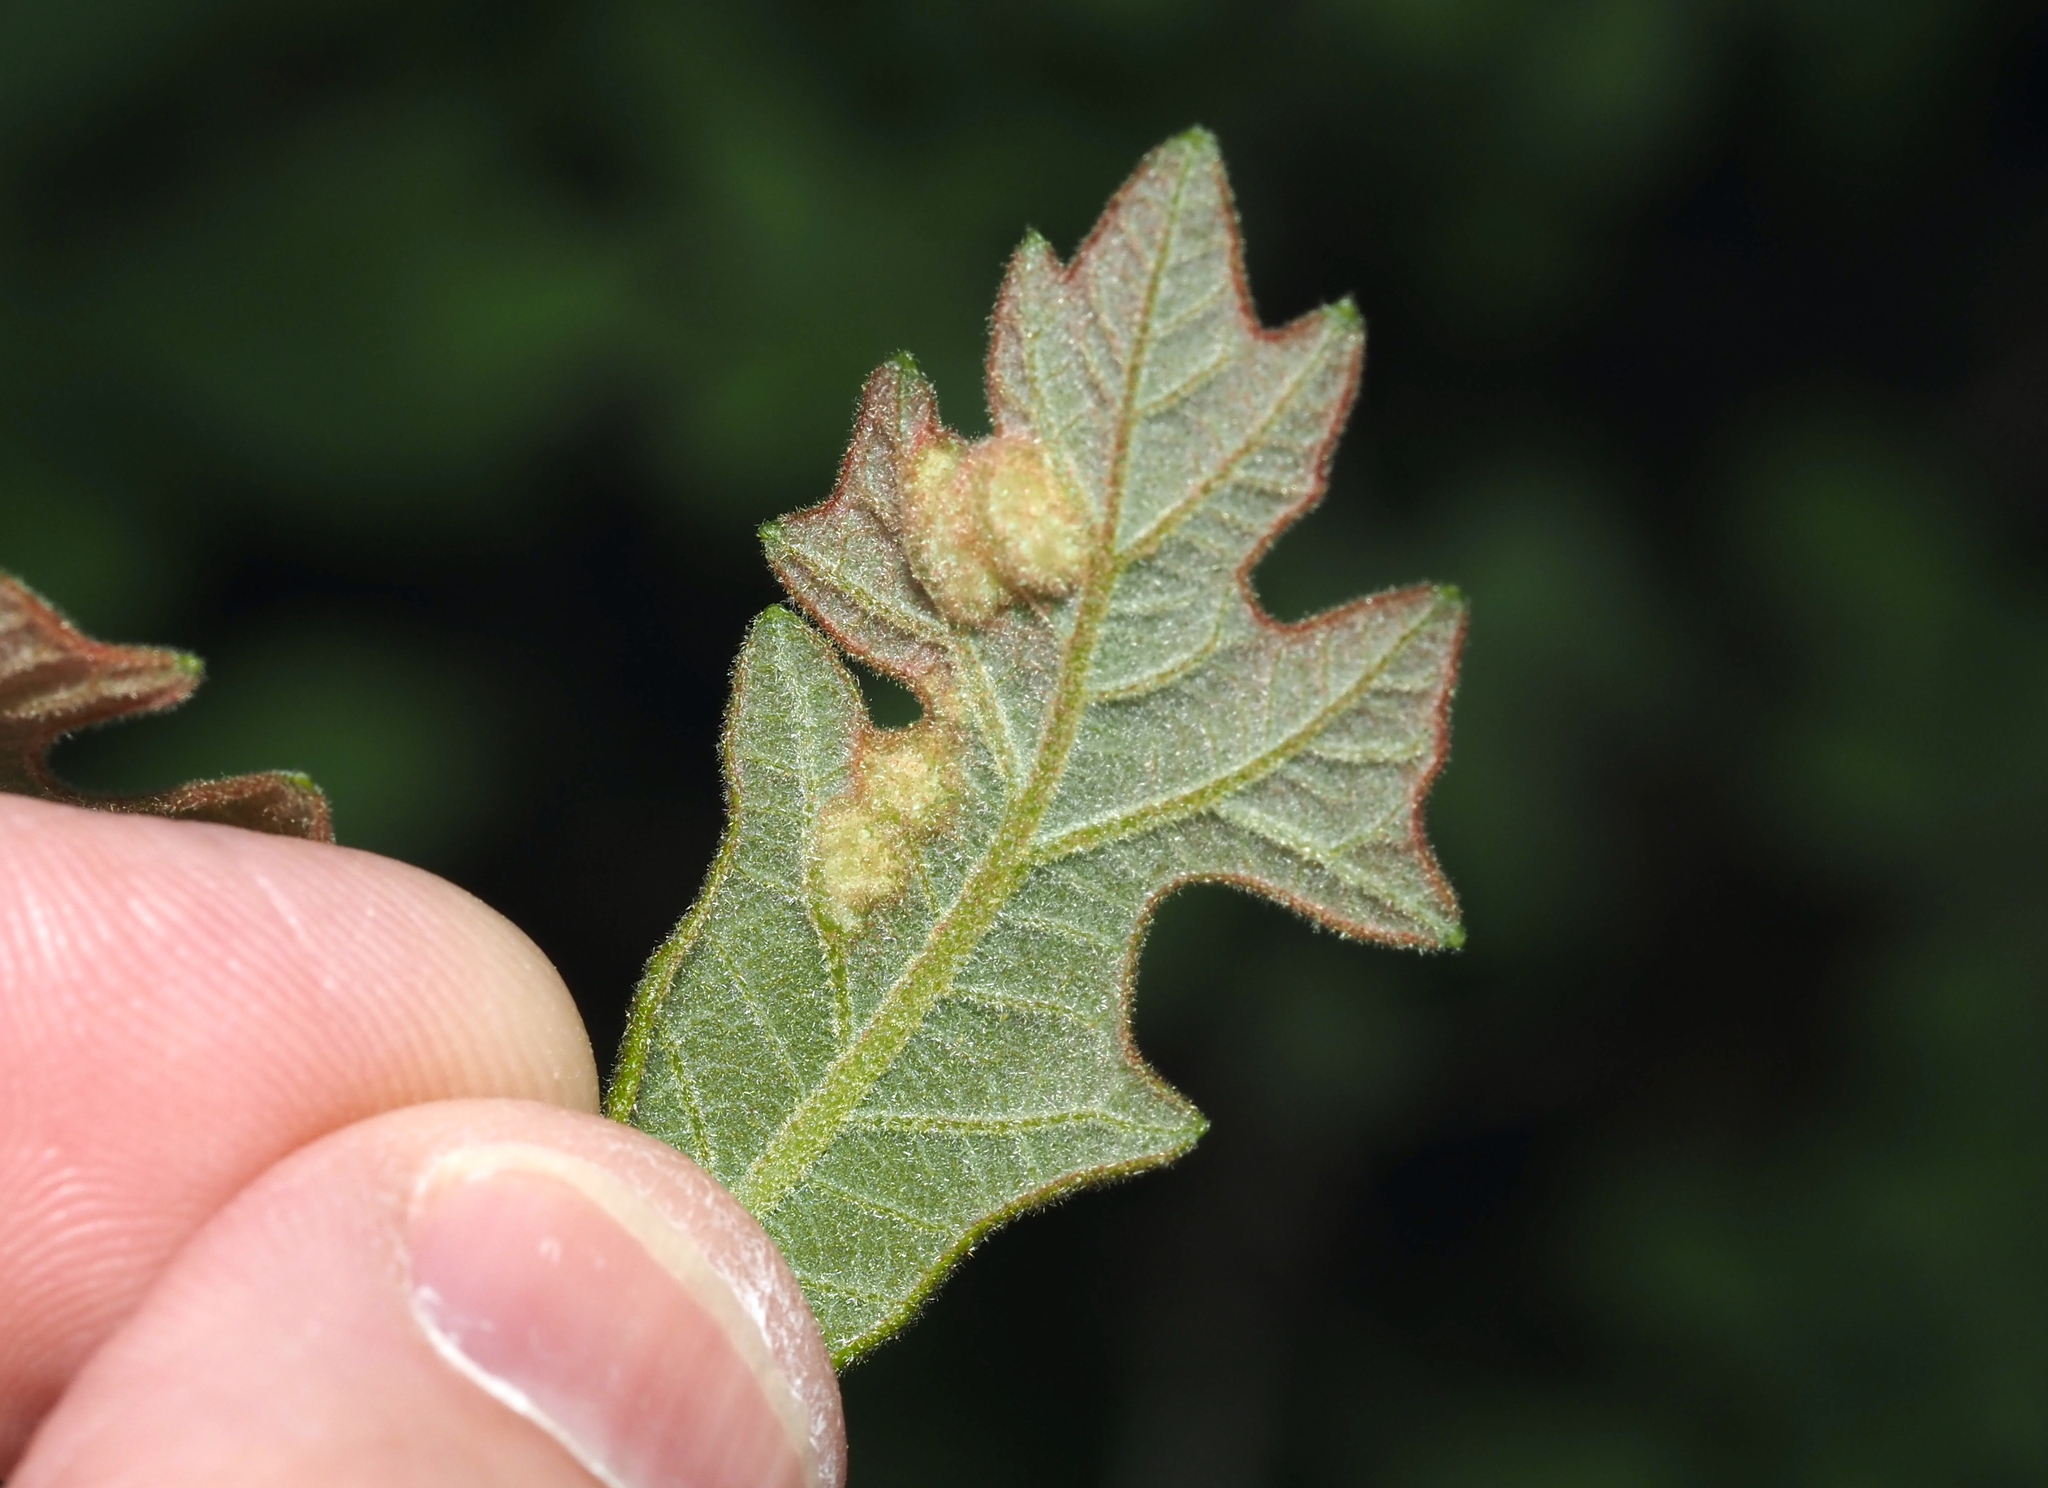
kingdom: Animalia
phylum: Arthropoda
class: Insecta
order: Hymenoptera
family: Cynipidae
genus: Neuroterus
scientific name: Neuroterus quercusirregularis
